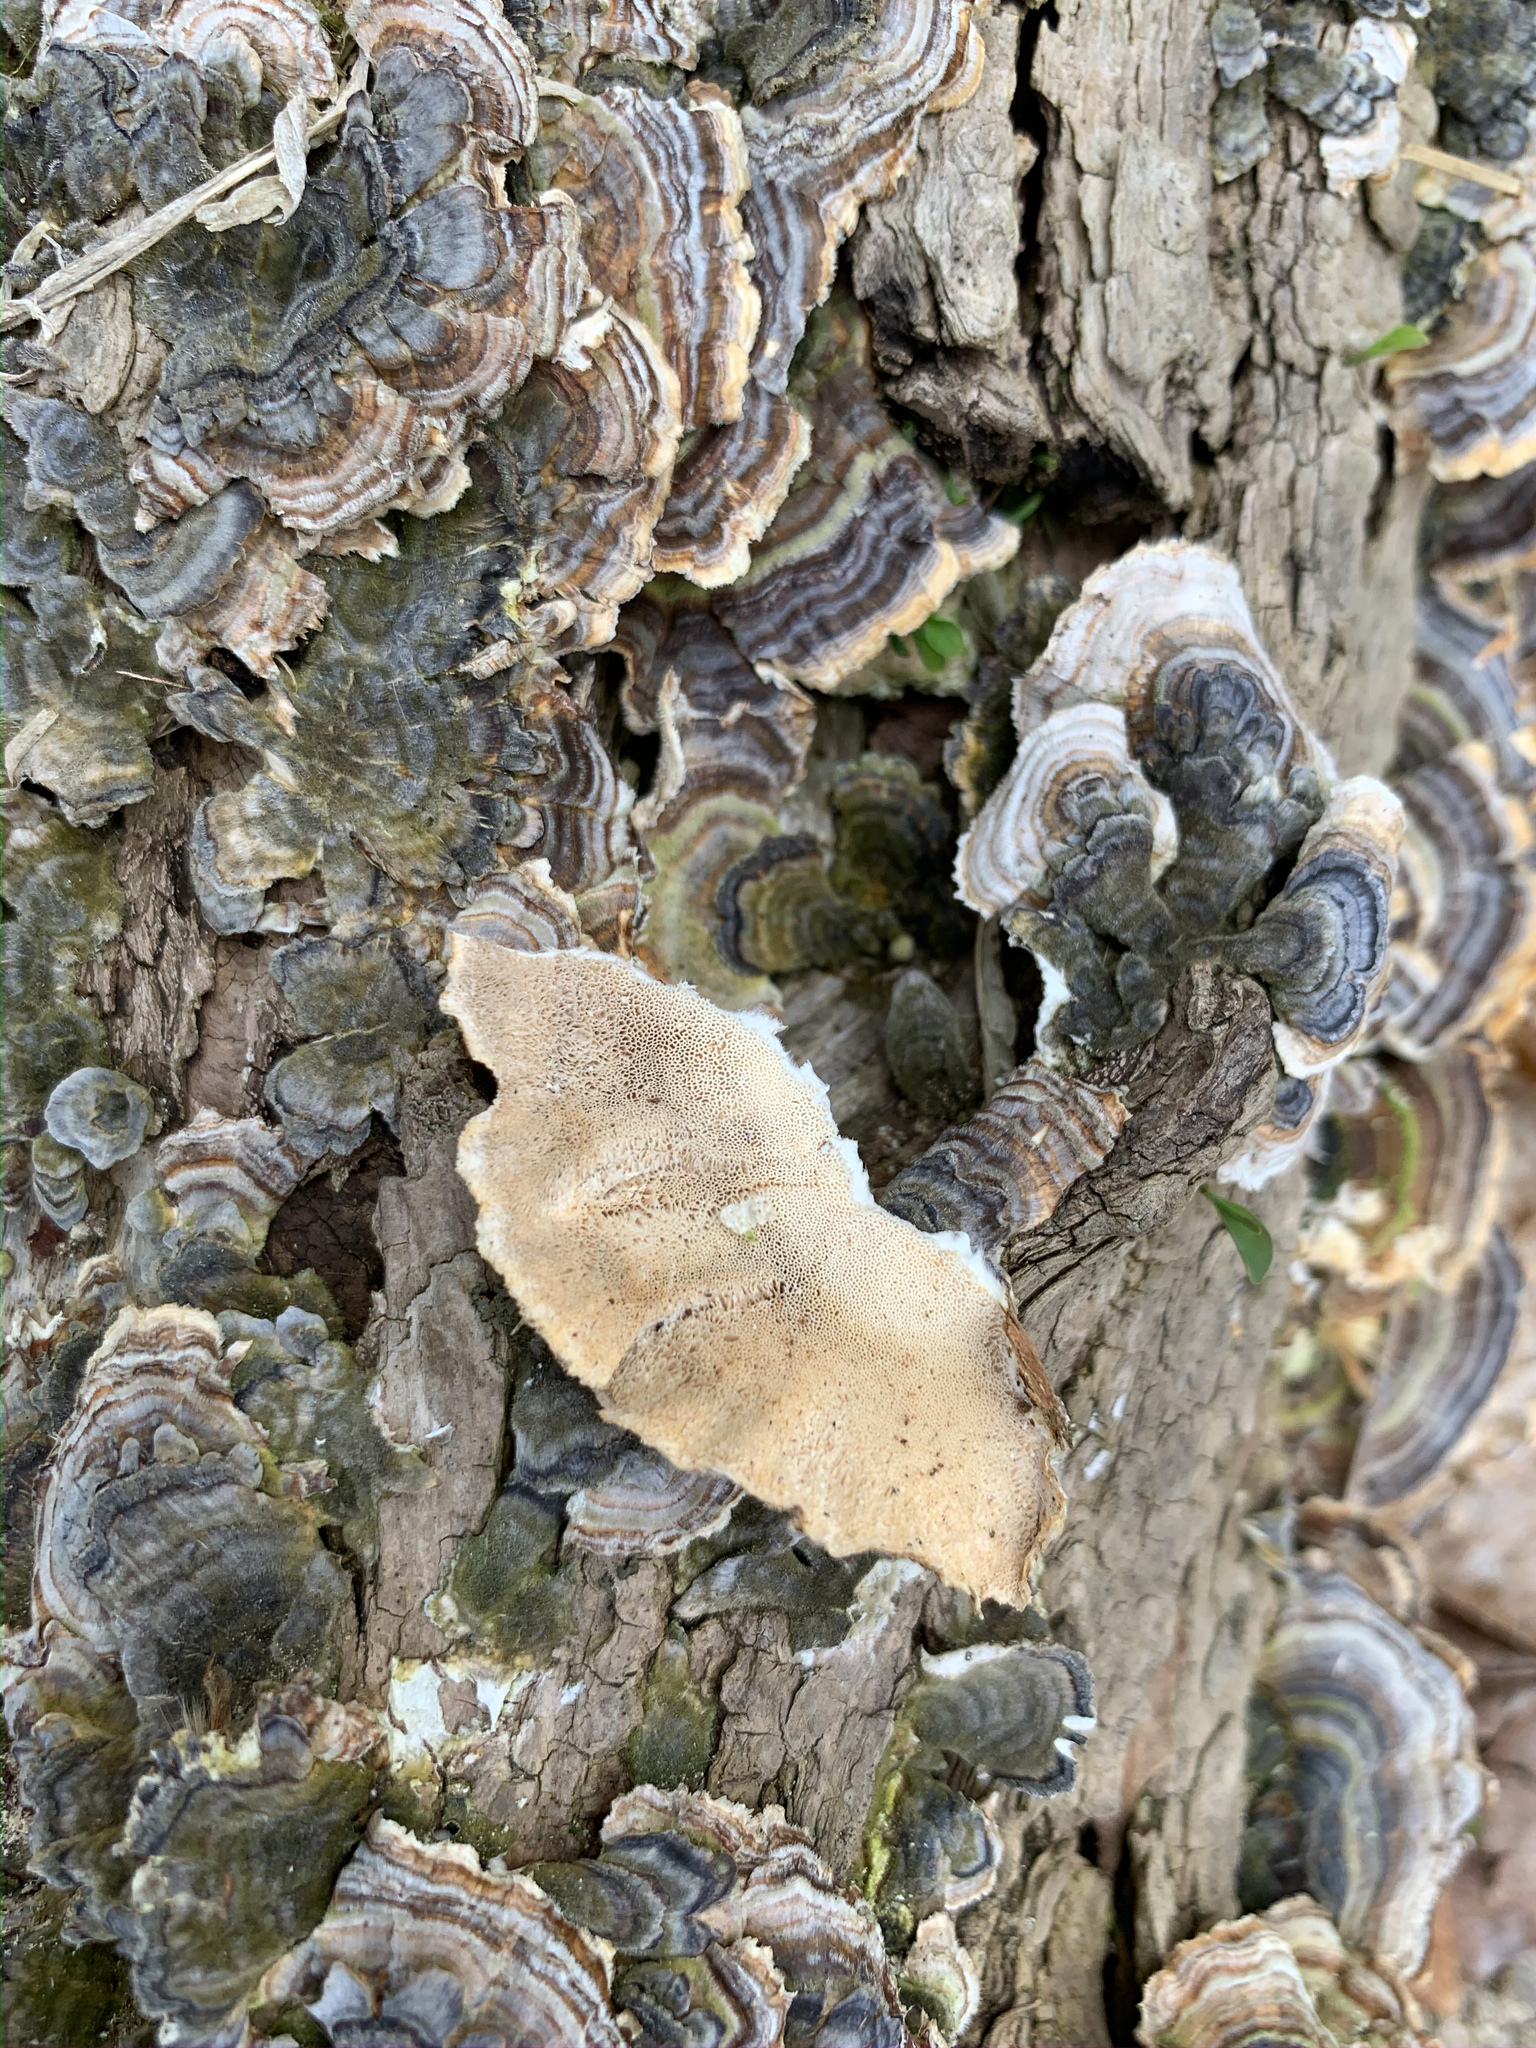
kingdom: Fungi
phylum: Basidiomycota
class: Agaricomycetes
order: Polyporales
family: Polyporaceae
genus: Trametes
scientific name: Trametes versicolor
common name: Turkeytail
